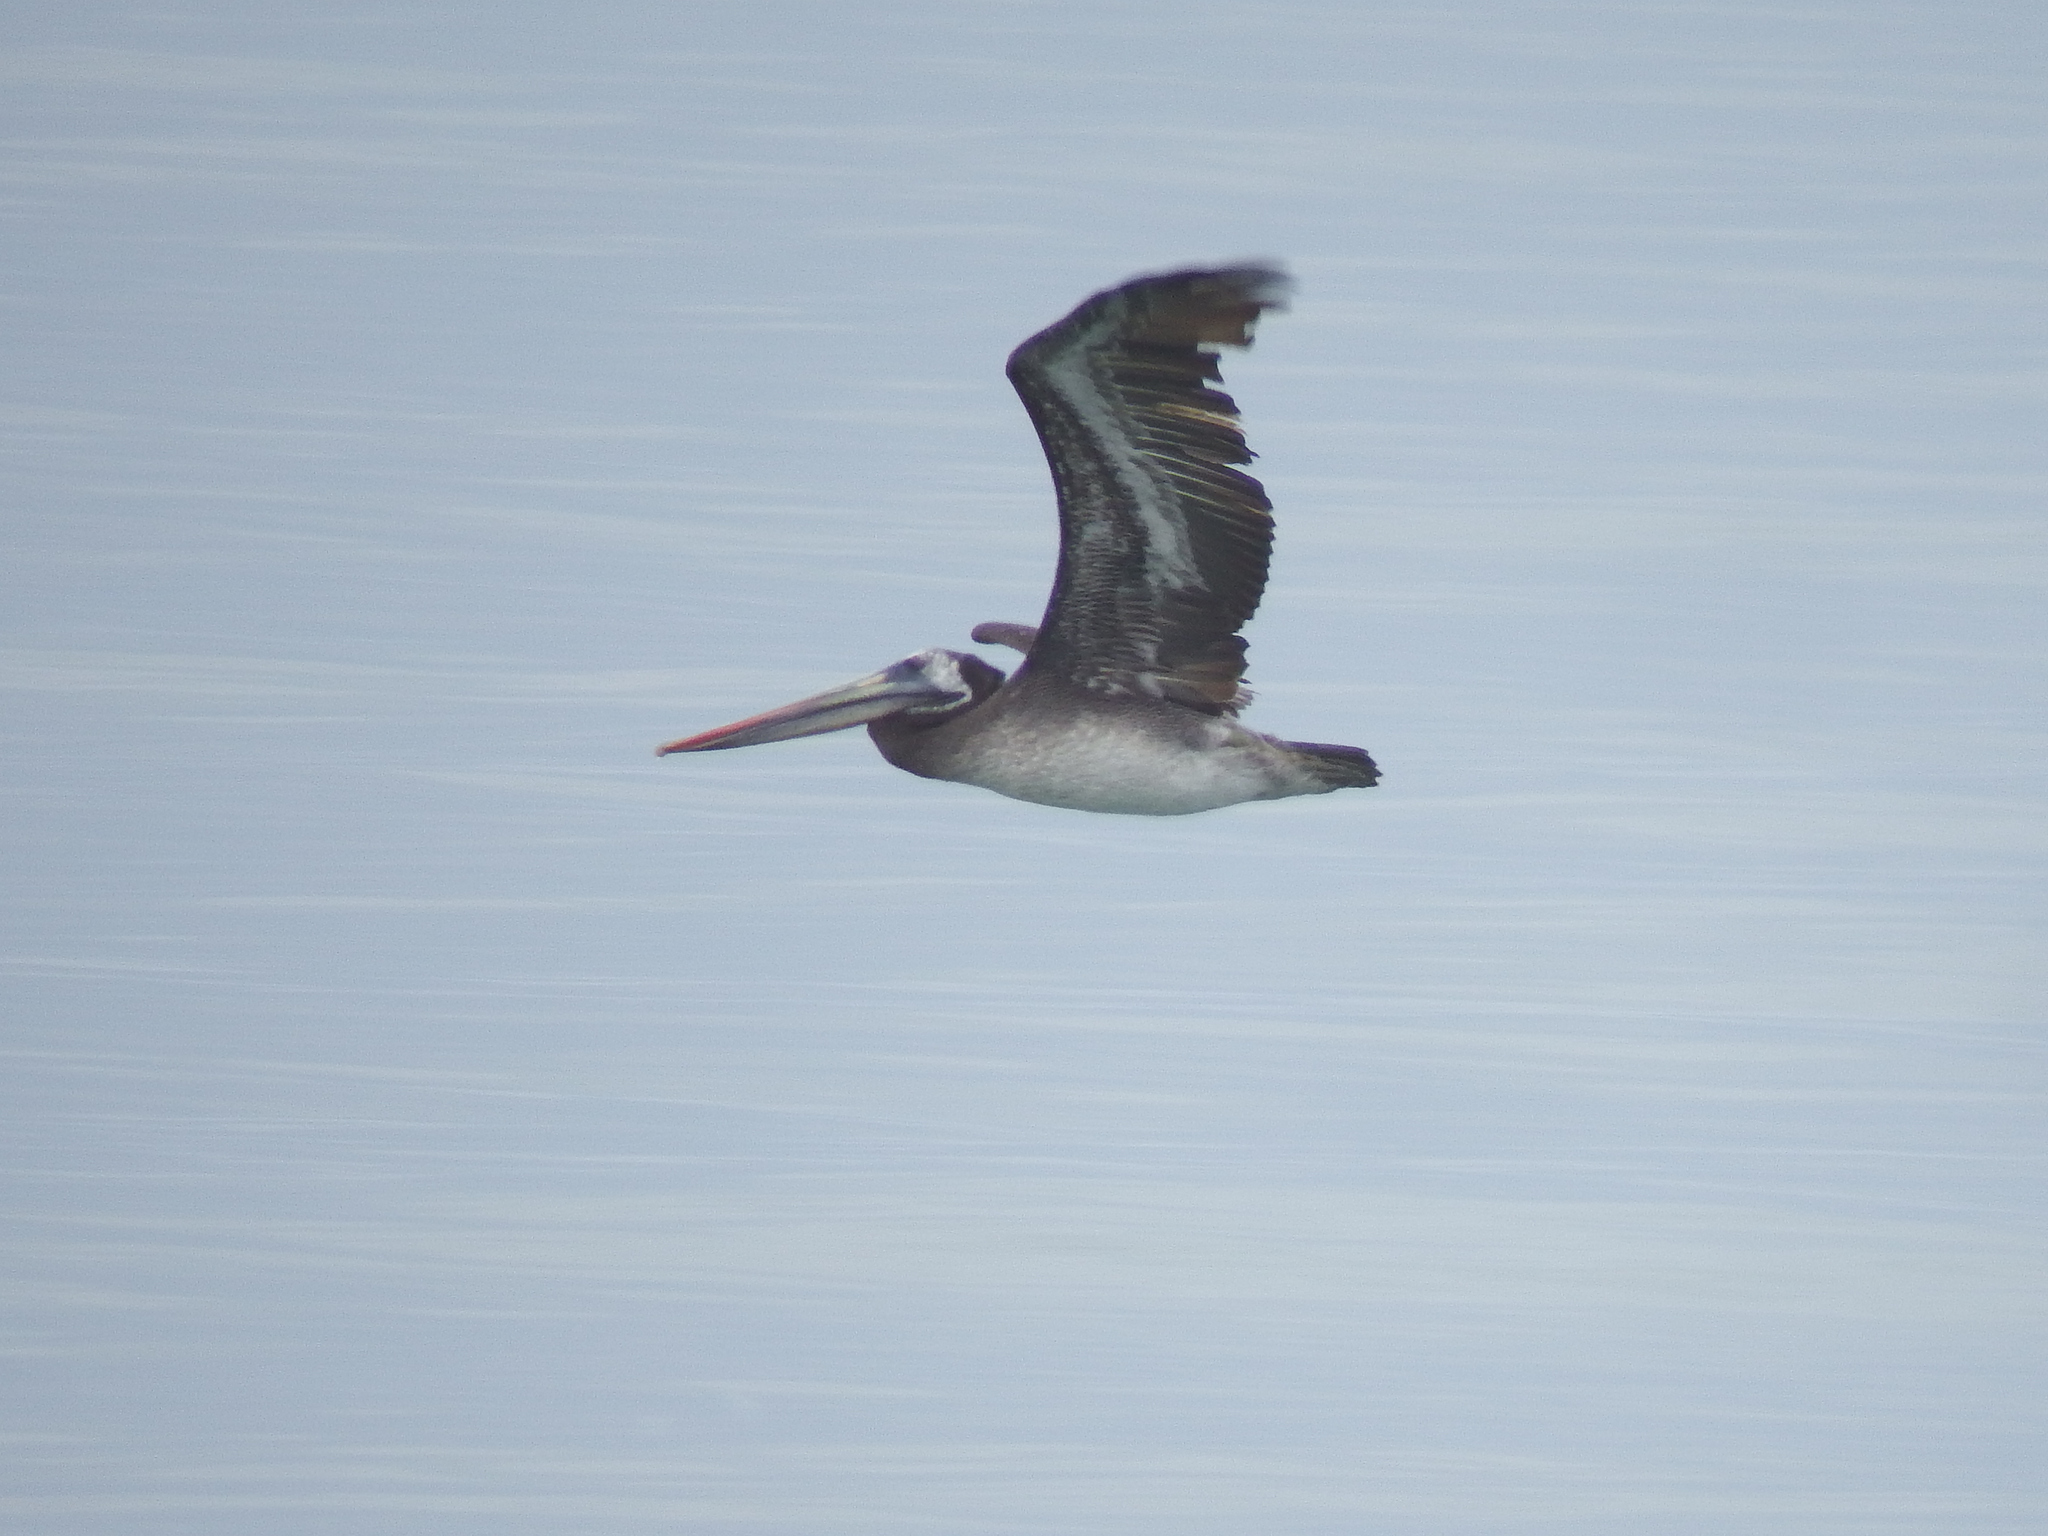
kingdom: Animalia
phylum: Chordata
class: Aves
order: Pelecaniformes
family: Pelecanidae
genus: Pelecanus
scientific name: Pelecanus thagus
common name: Peruvian pelican
